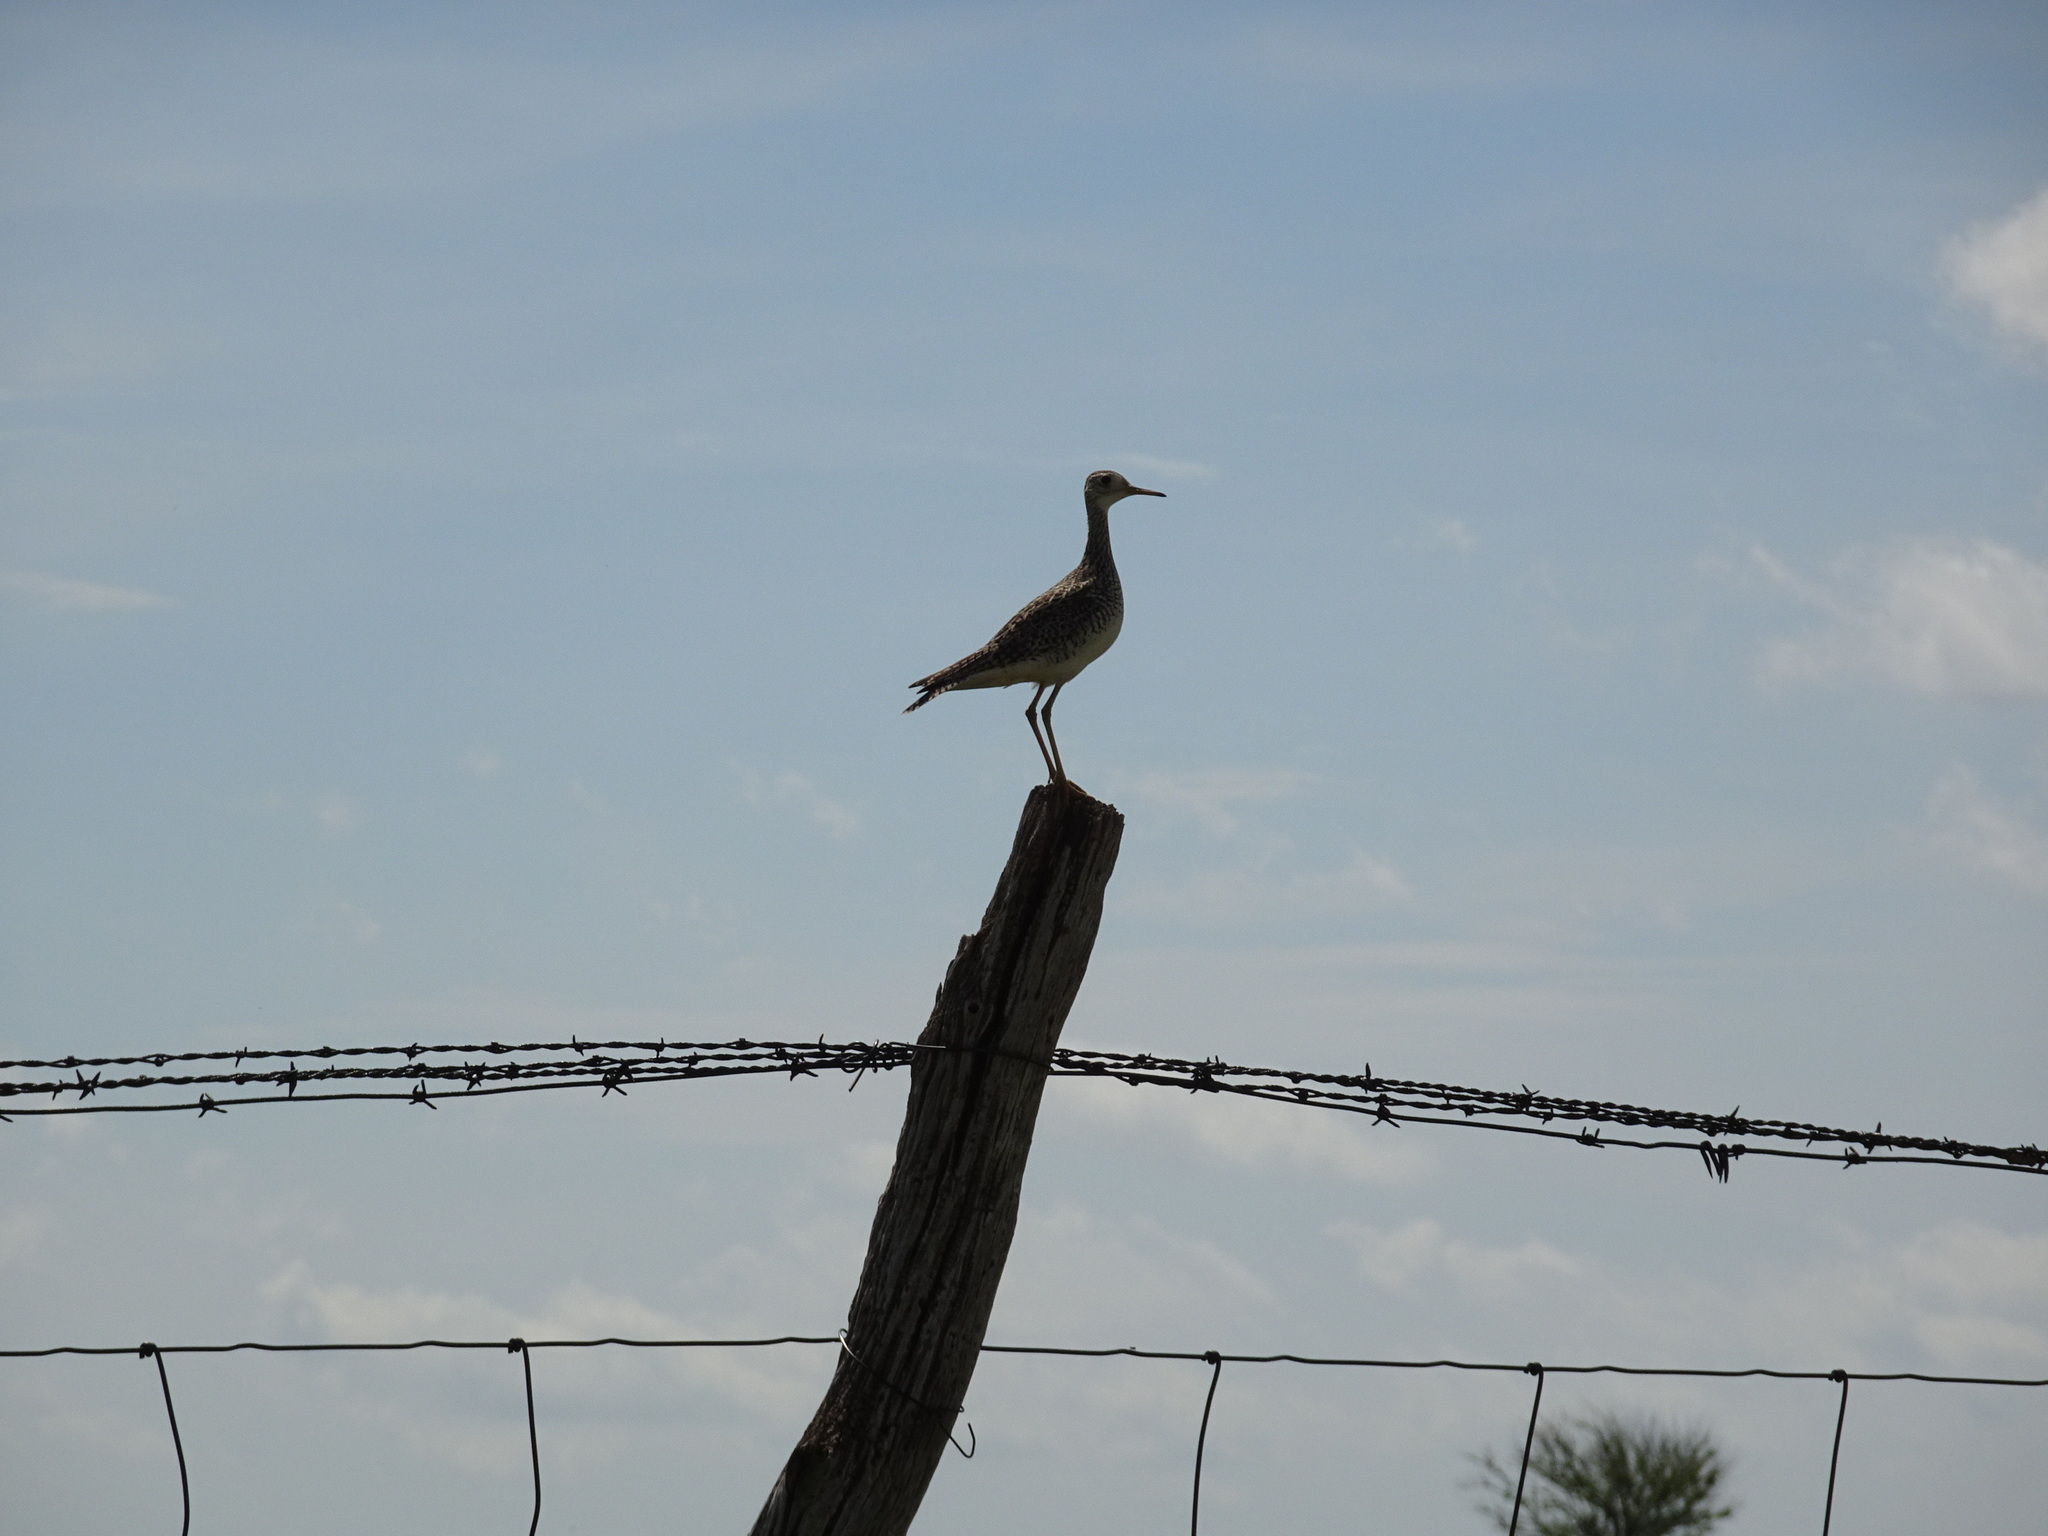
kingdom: Animalia
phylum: Chordata
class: Aves
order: Charadriiformes
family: Scolopacidae
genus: Bartramia
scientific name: Bartramia longicauda
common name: Upland sandpiper
